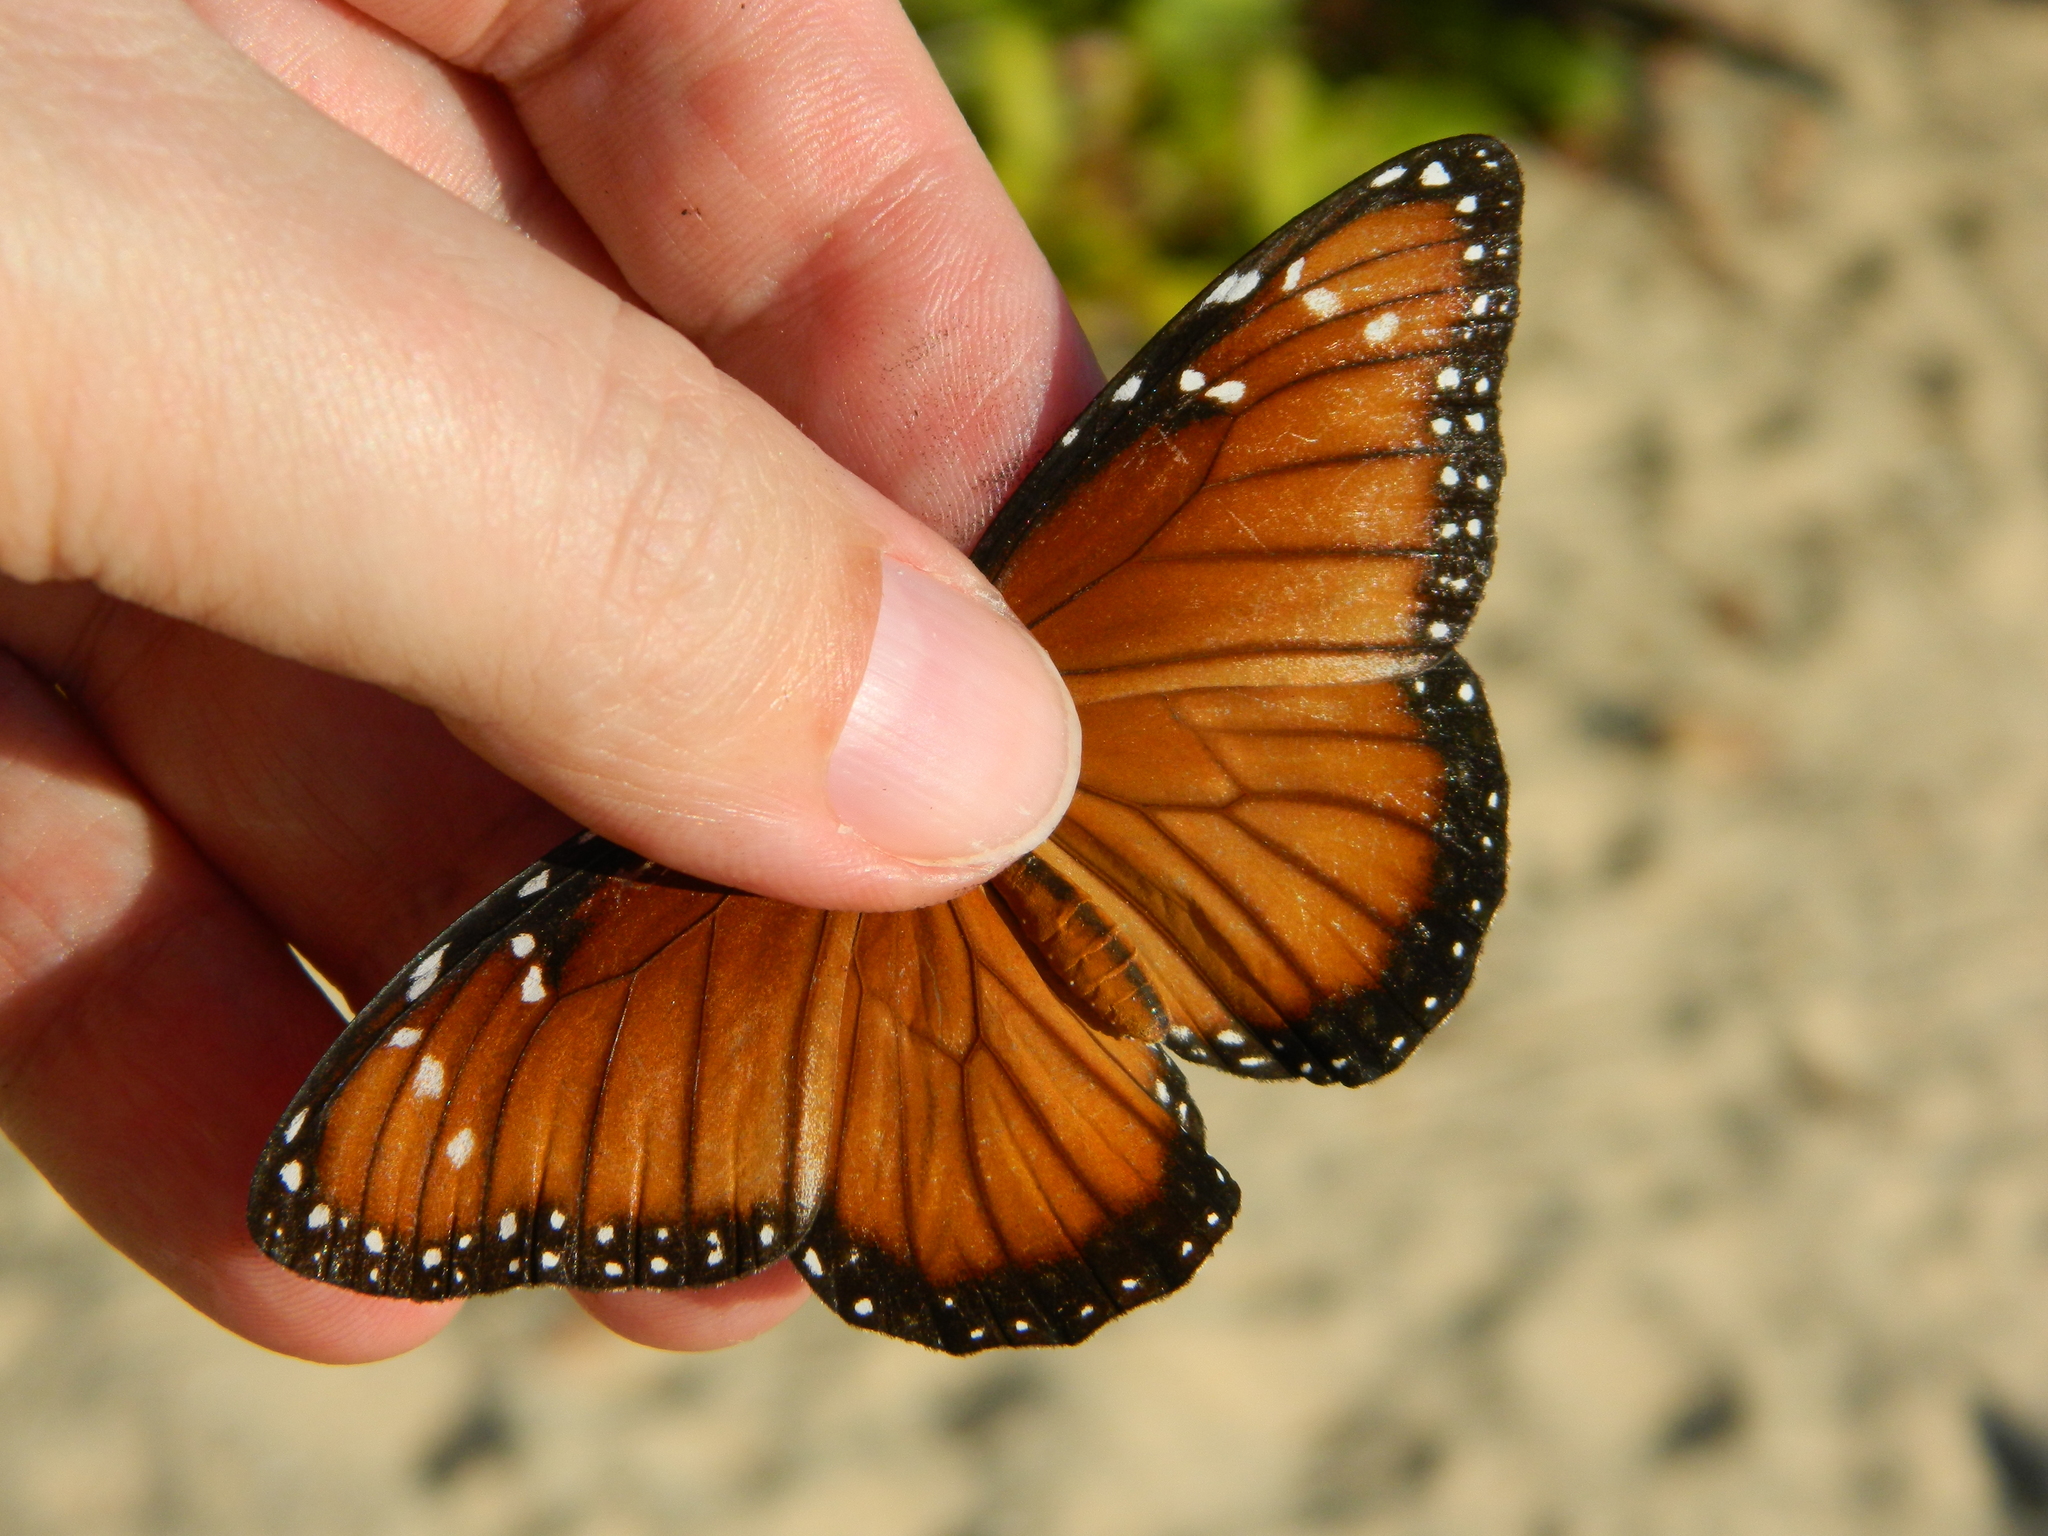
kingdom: Animalia
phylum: Arthropoda
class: Insecta
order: Lepidoptera
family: Nymphalidae
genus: Danaus
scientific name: Danaus eresimus
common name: Soldier
